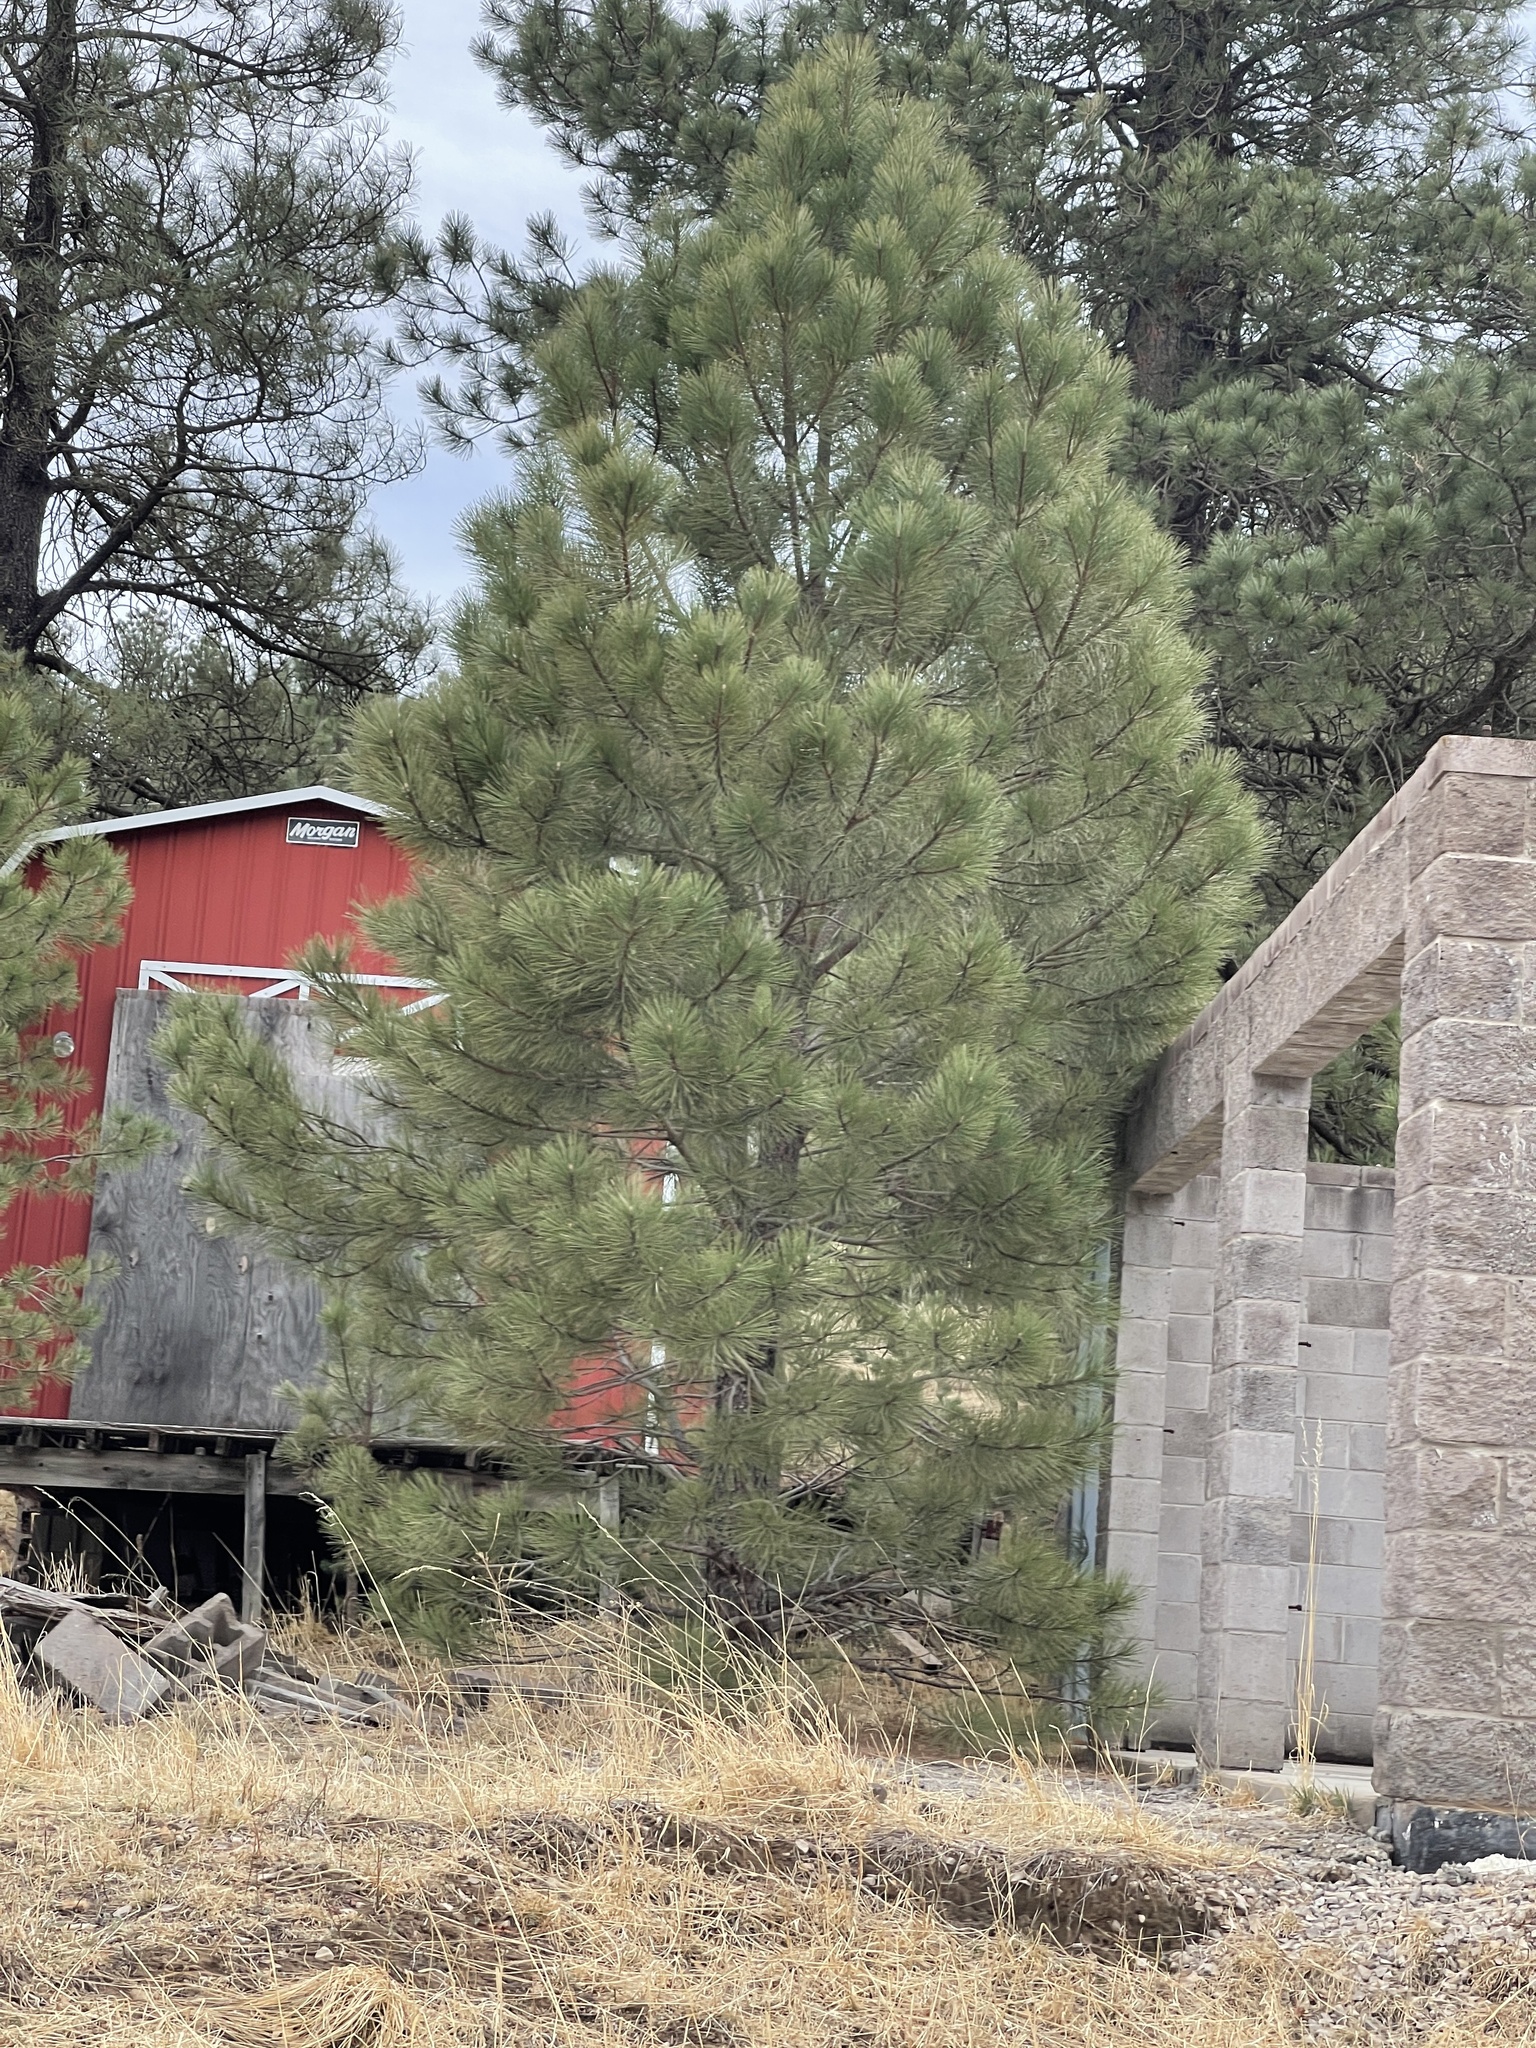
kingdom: Plantae
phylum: Tracheophyta
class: Pinopsida
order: Pinales
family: Pinaceae
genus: Pinus
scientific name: Pinus ponderosa
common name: Western yellow-pine
